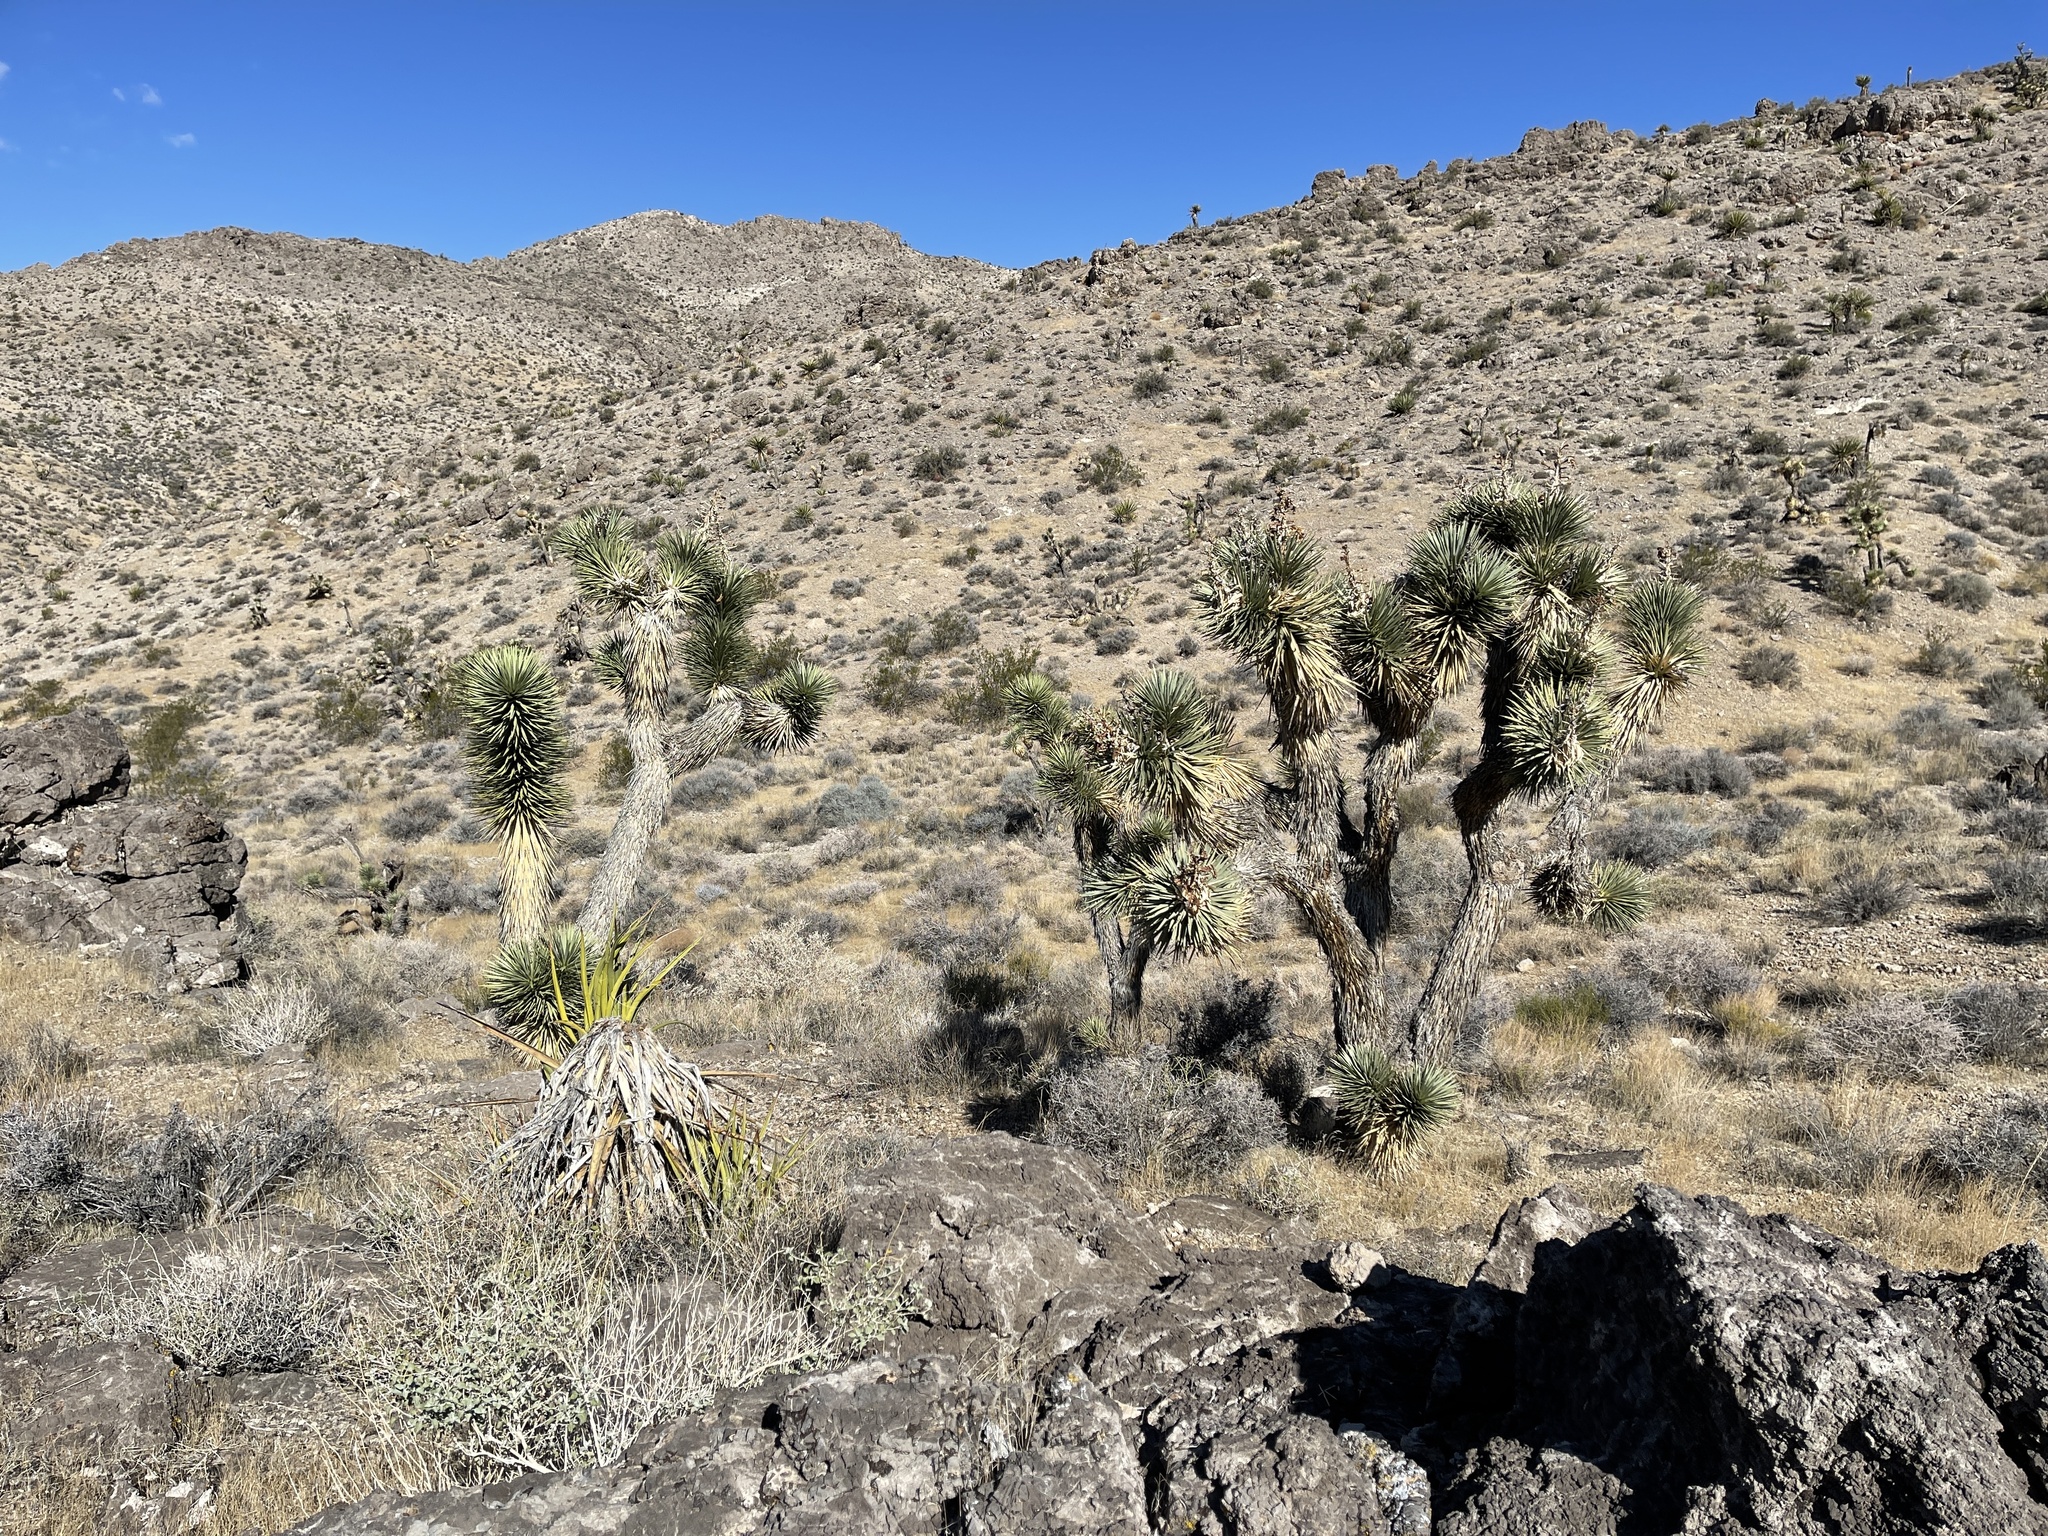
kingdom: Plantae
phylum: Tracheophyta
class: Liliopsida
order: Asparagales
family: Asparagaceae
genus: Yucca
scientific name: Yucca brevifolia
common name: Joshua tree
